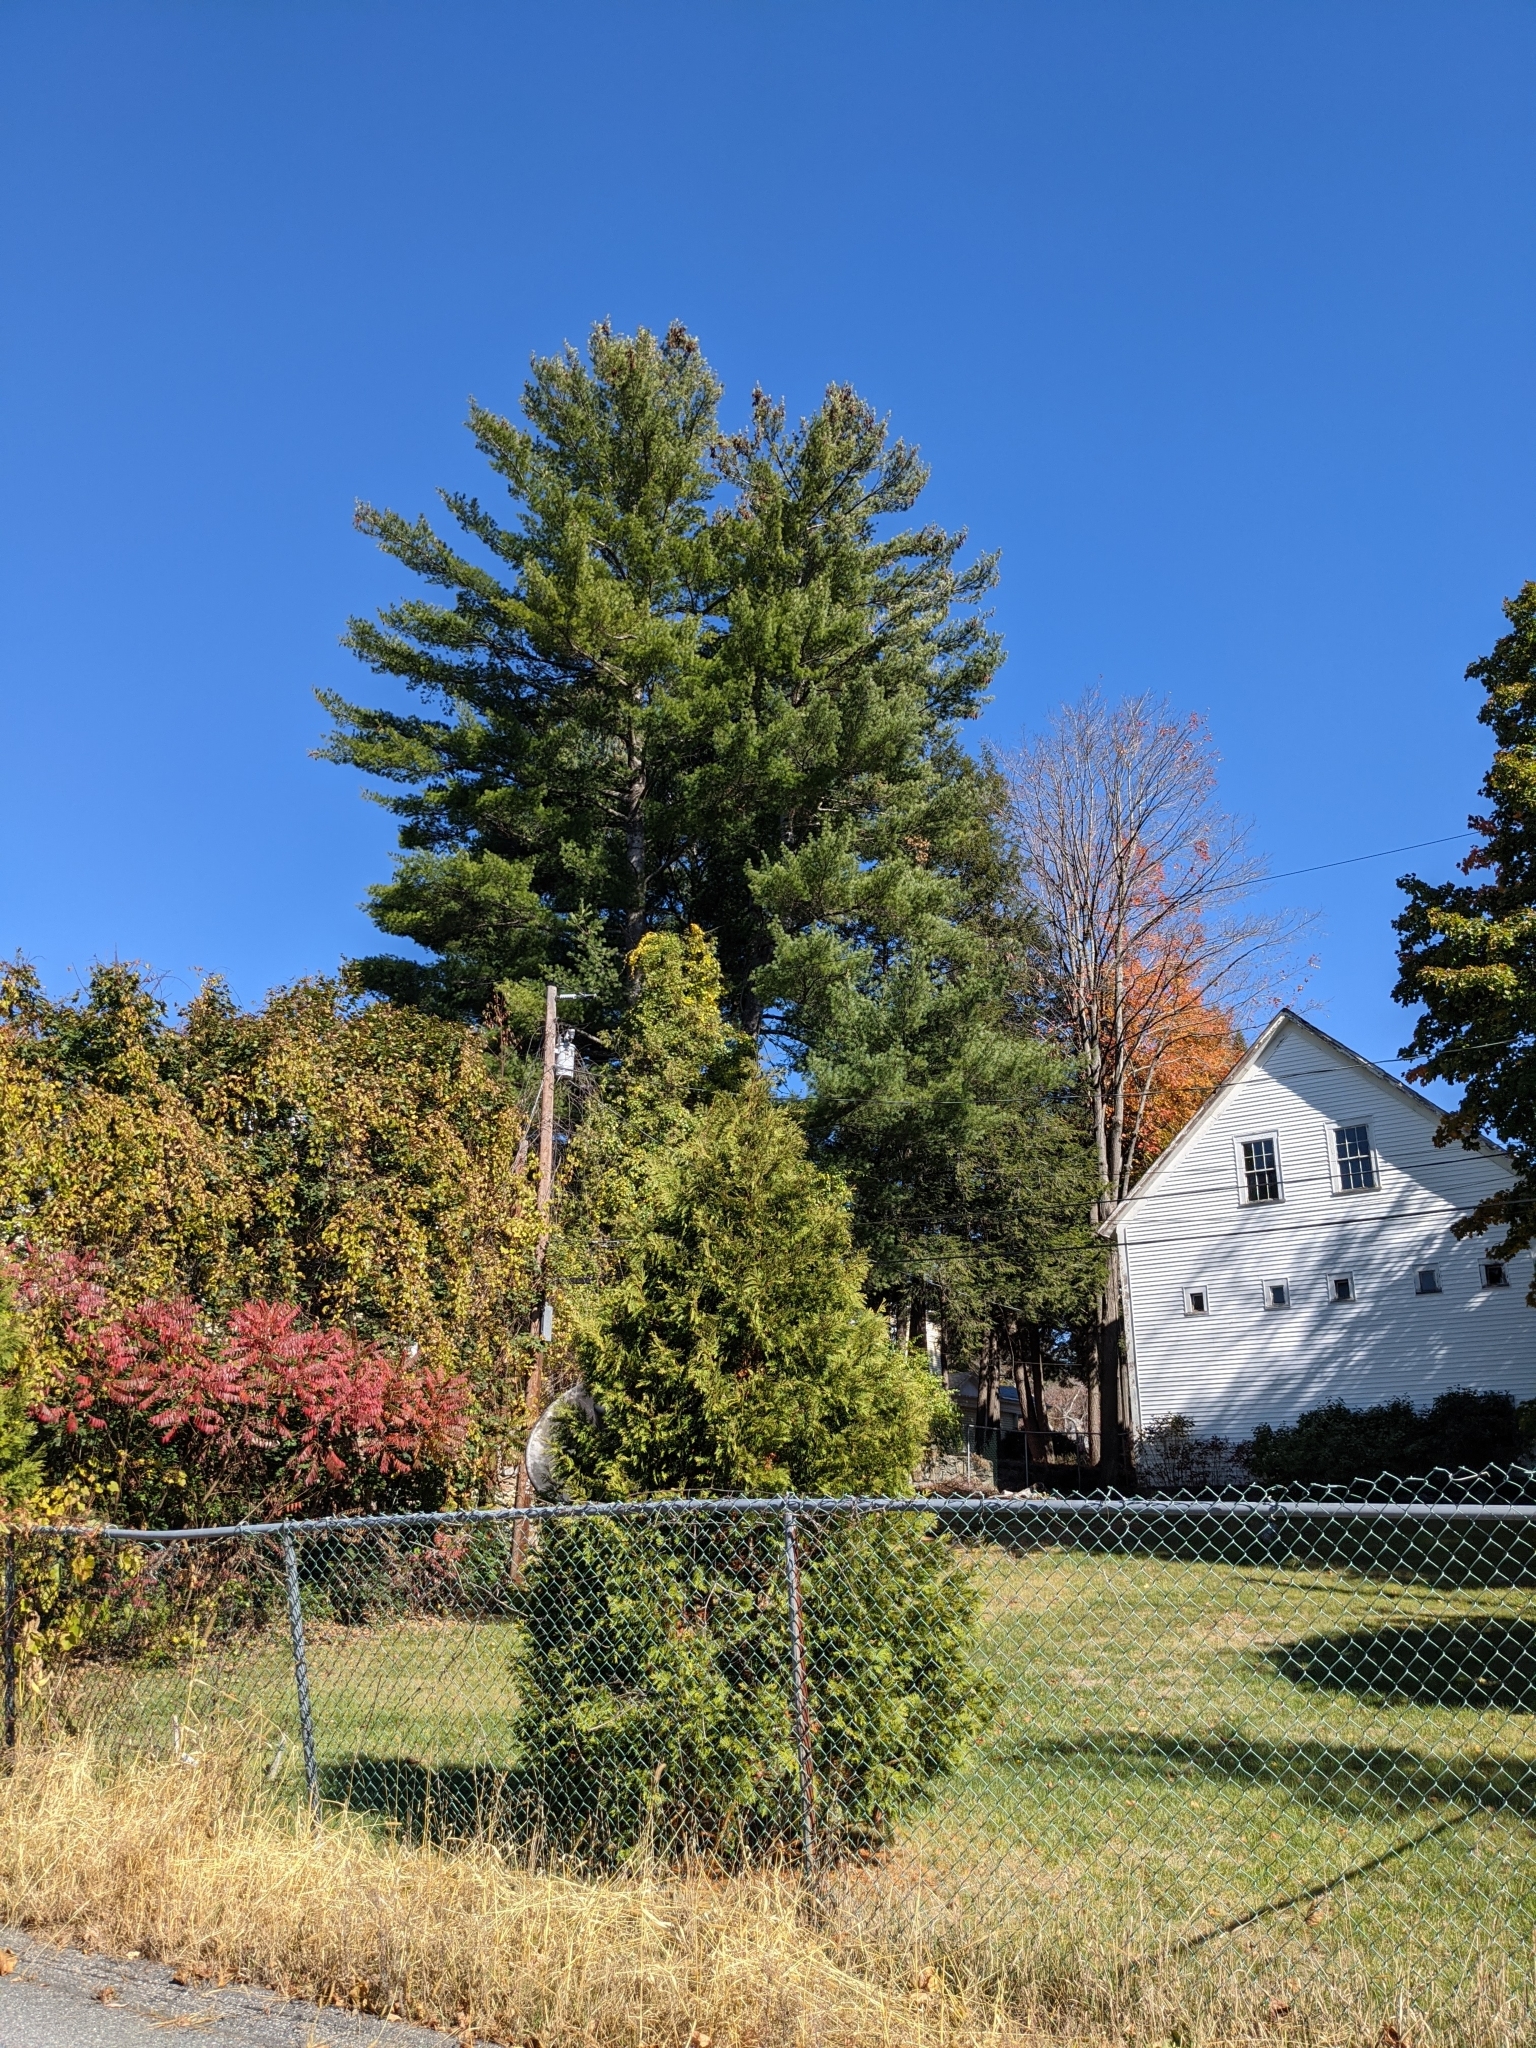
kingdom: Plantae
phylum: Tracheophyta
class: Pinopsida
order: Pinales
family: Pinaceae
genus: Pinus
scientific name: Pinus strobus
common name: Weymouth pine
